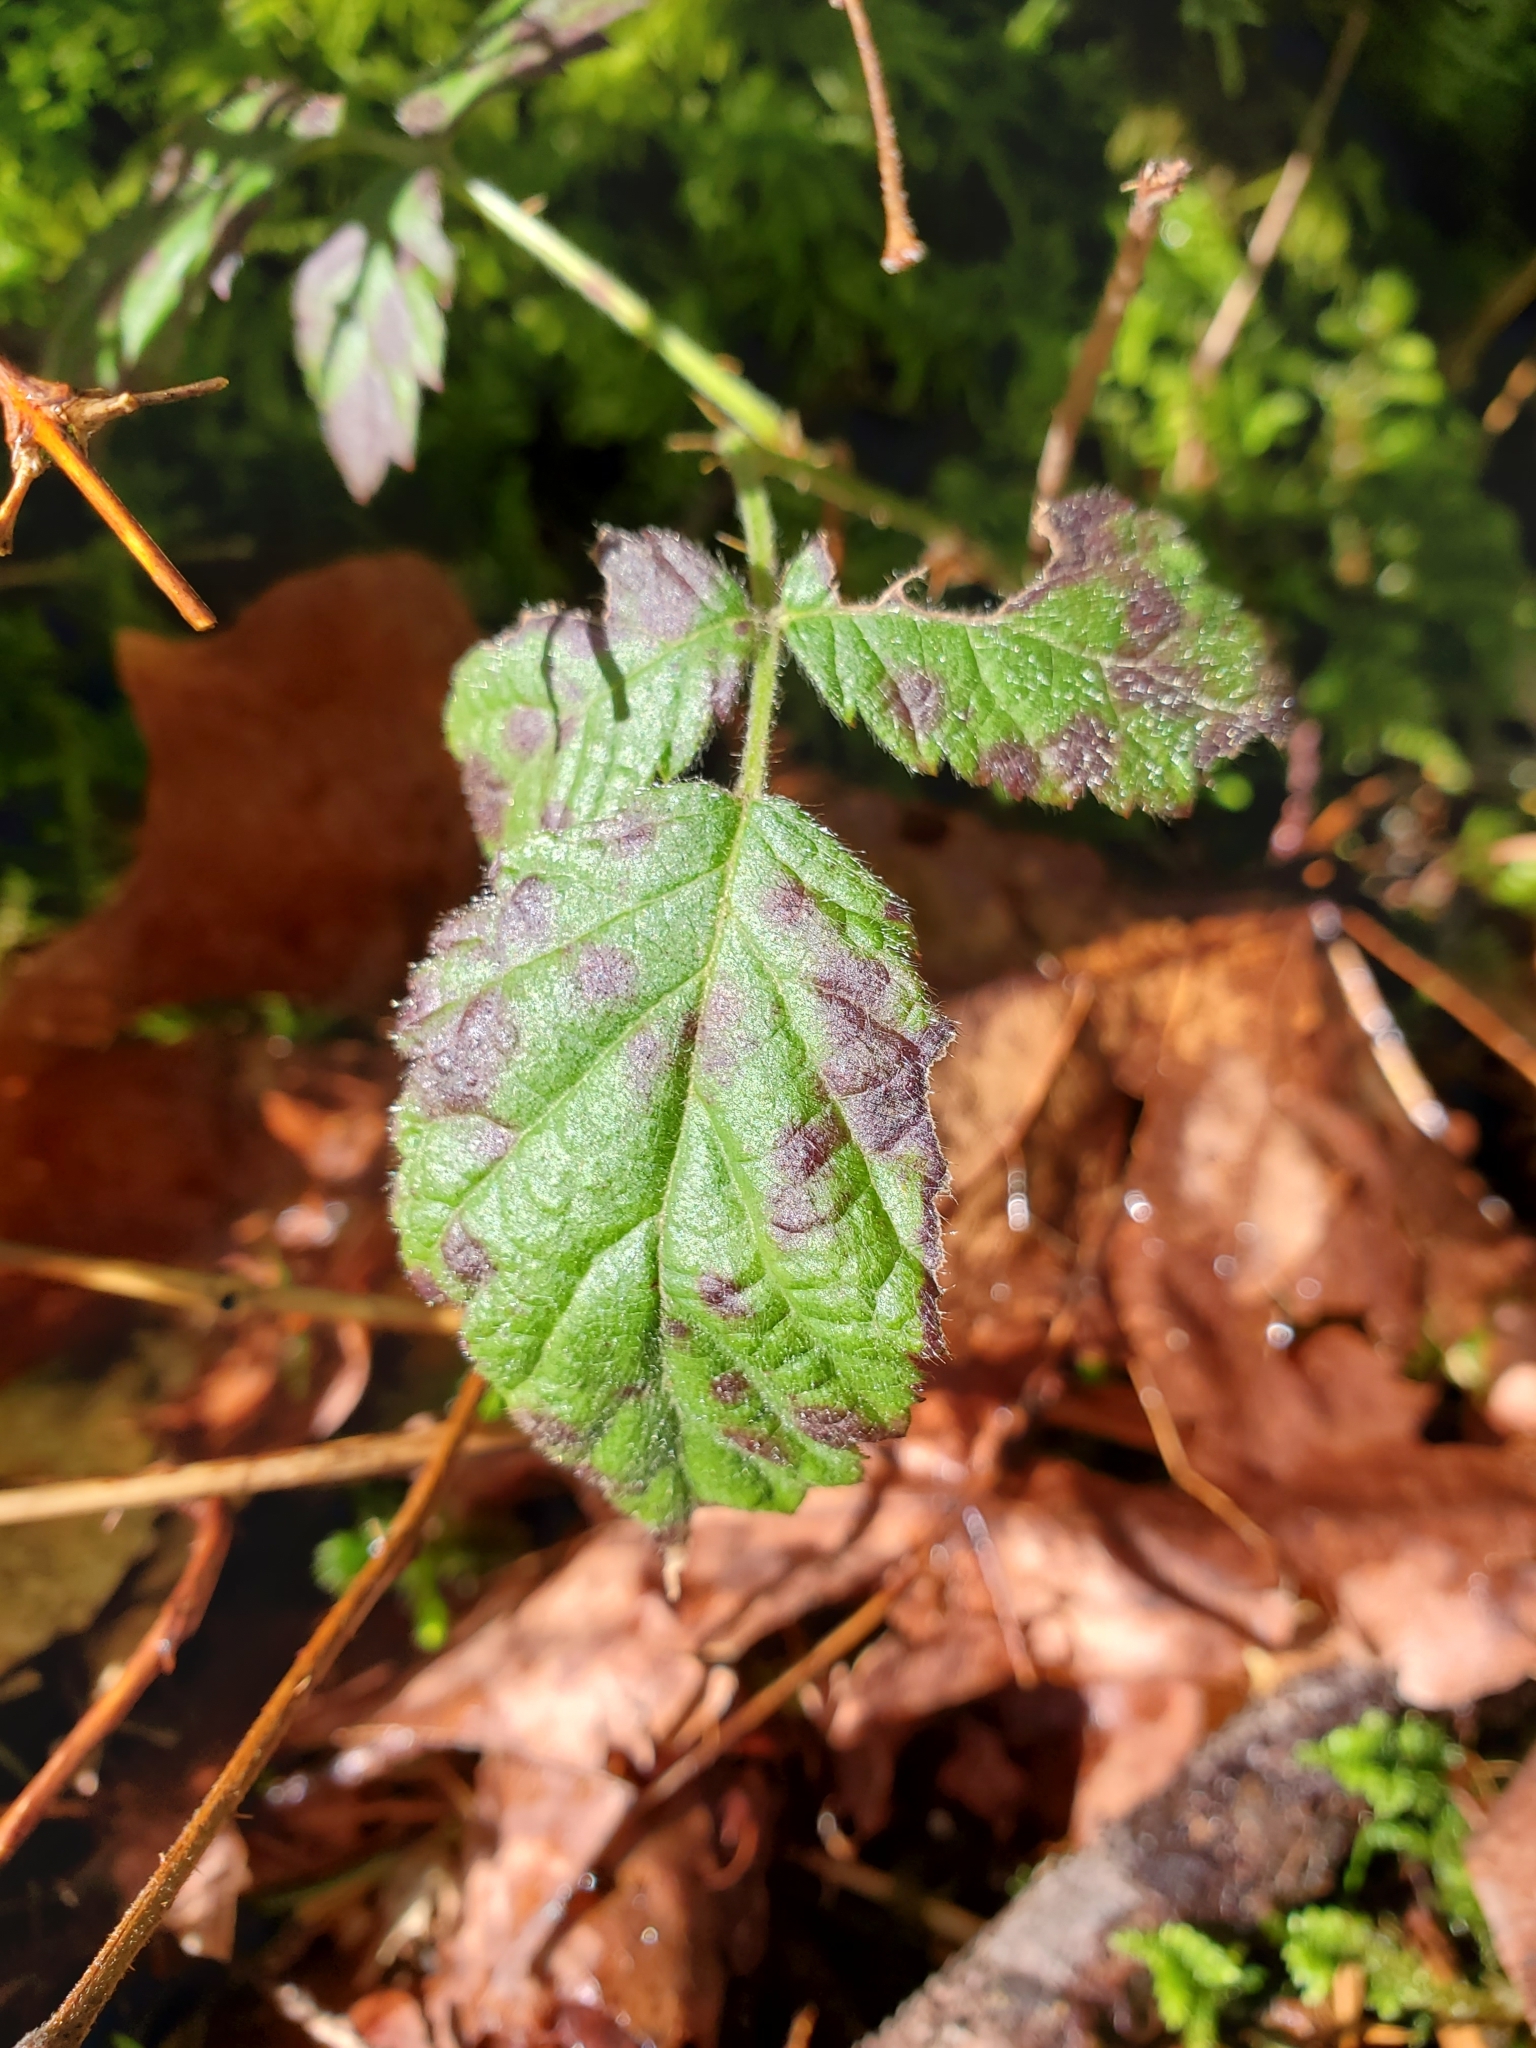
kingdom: Plantae
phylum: Tracheophyta
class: Magnoliopsida
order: Rosales
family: Rosaceae
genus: Rubus
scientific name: Rubus ursinus
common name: Pacific blackberry
